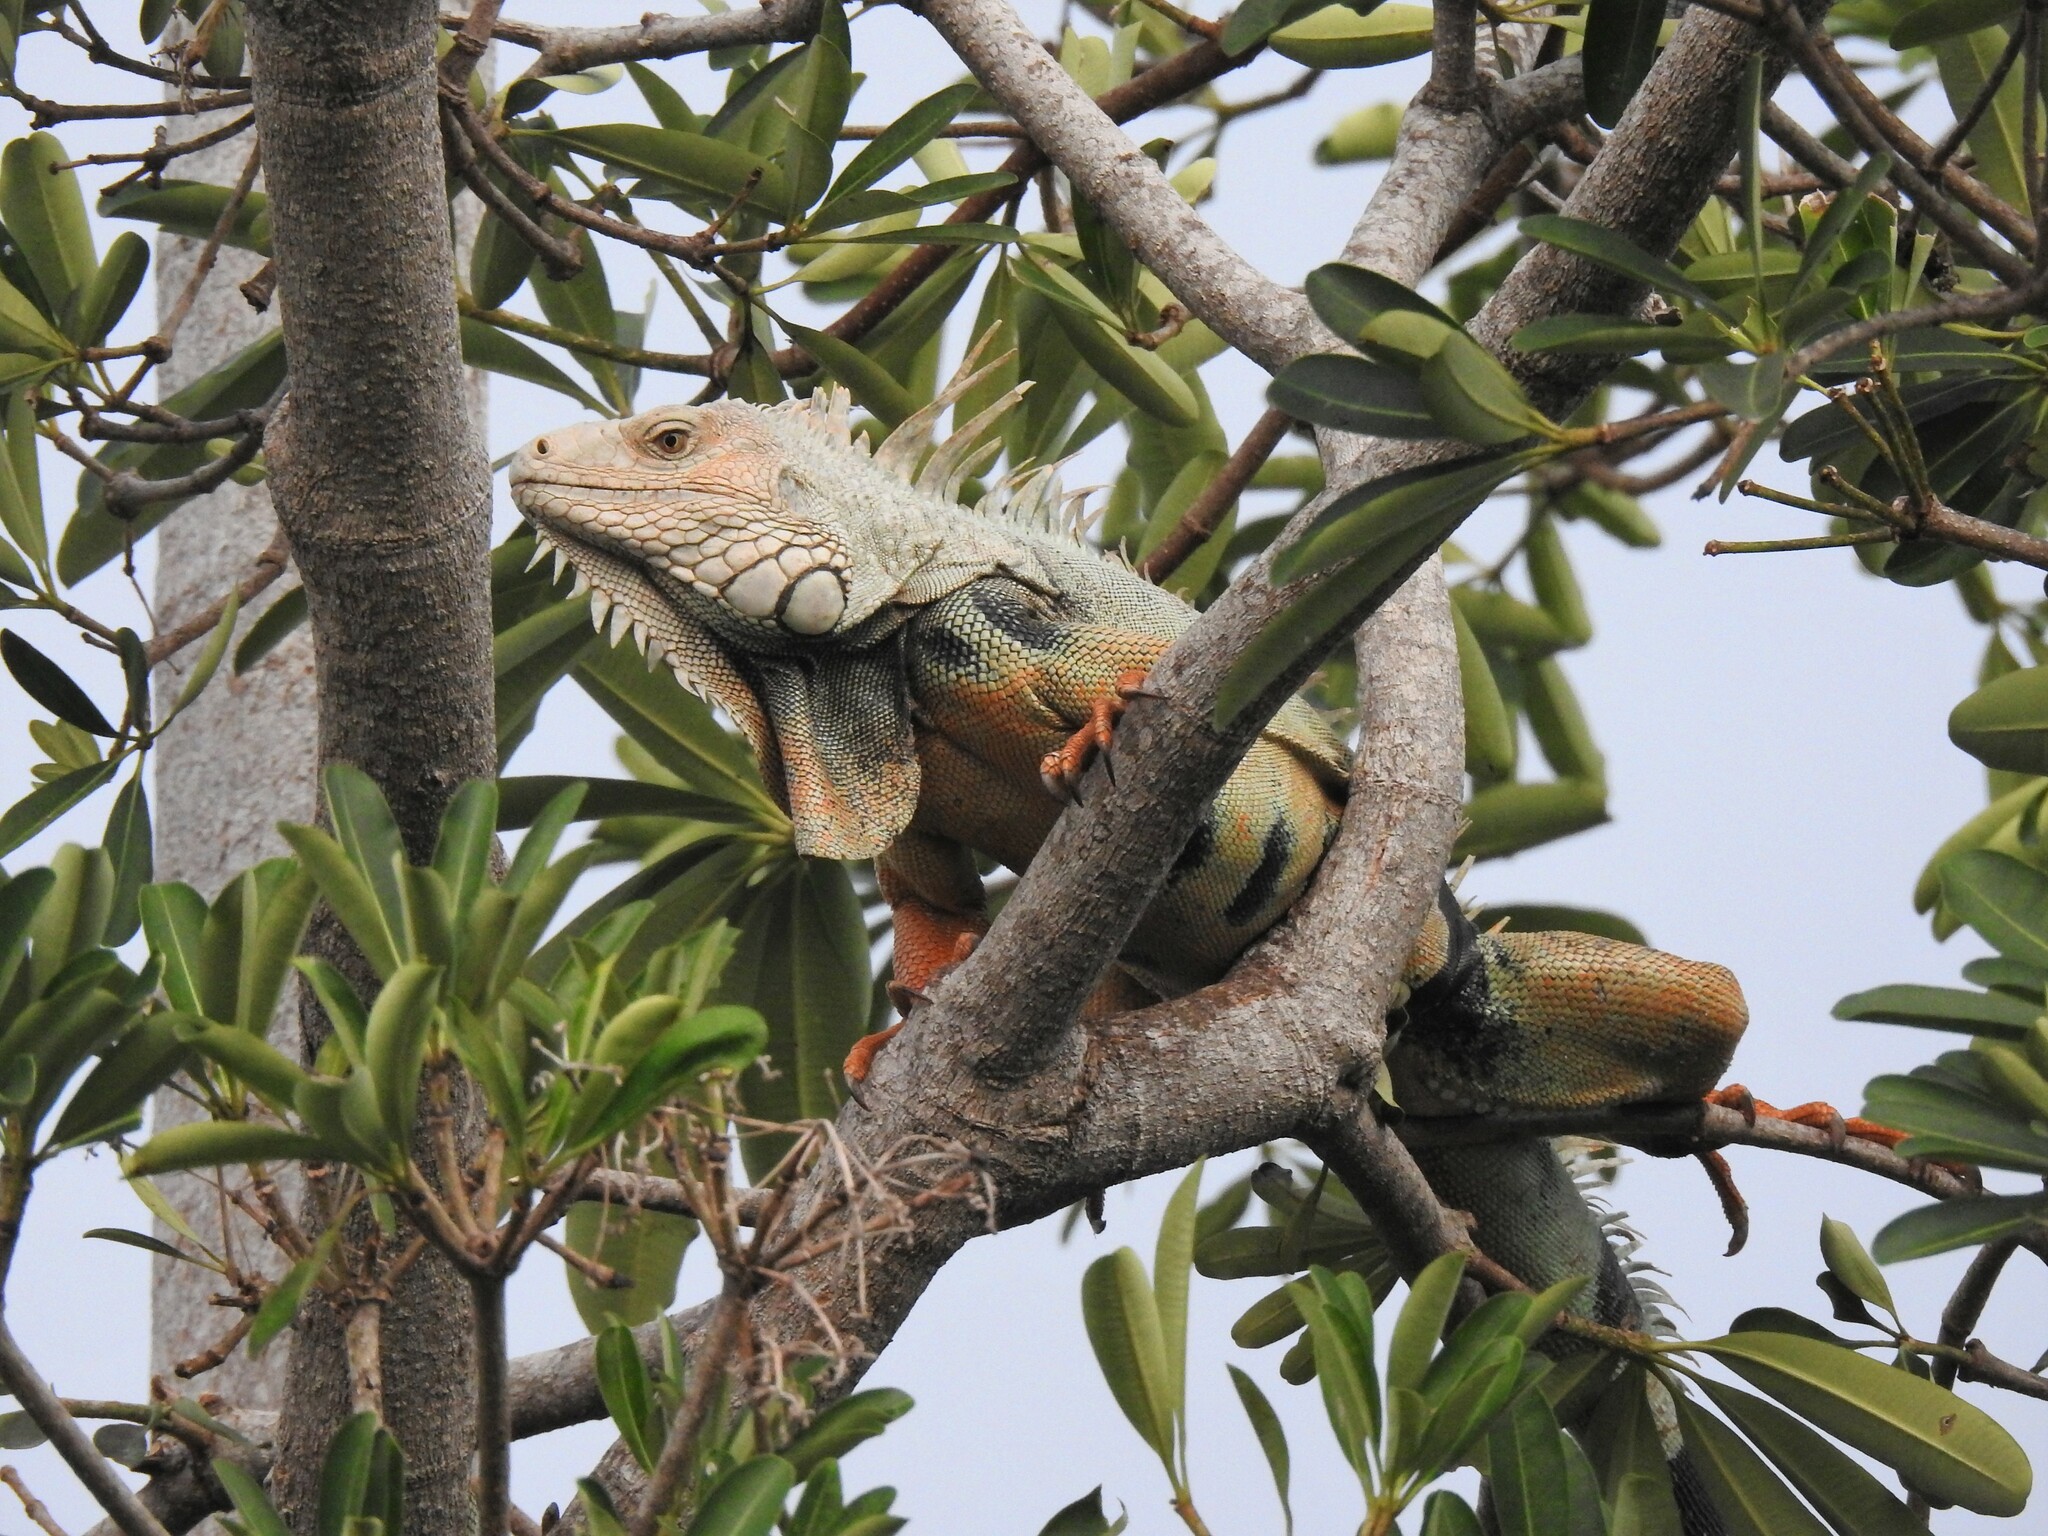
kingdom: Animalia
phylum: Chordata
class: Squamata
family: Iguanidae
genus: Iguana
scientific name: Iguana iguana
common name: Green iguana
